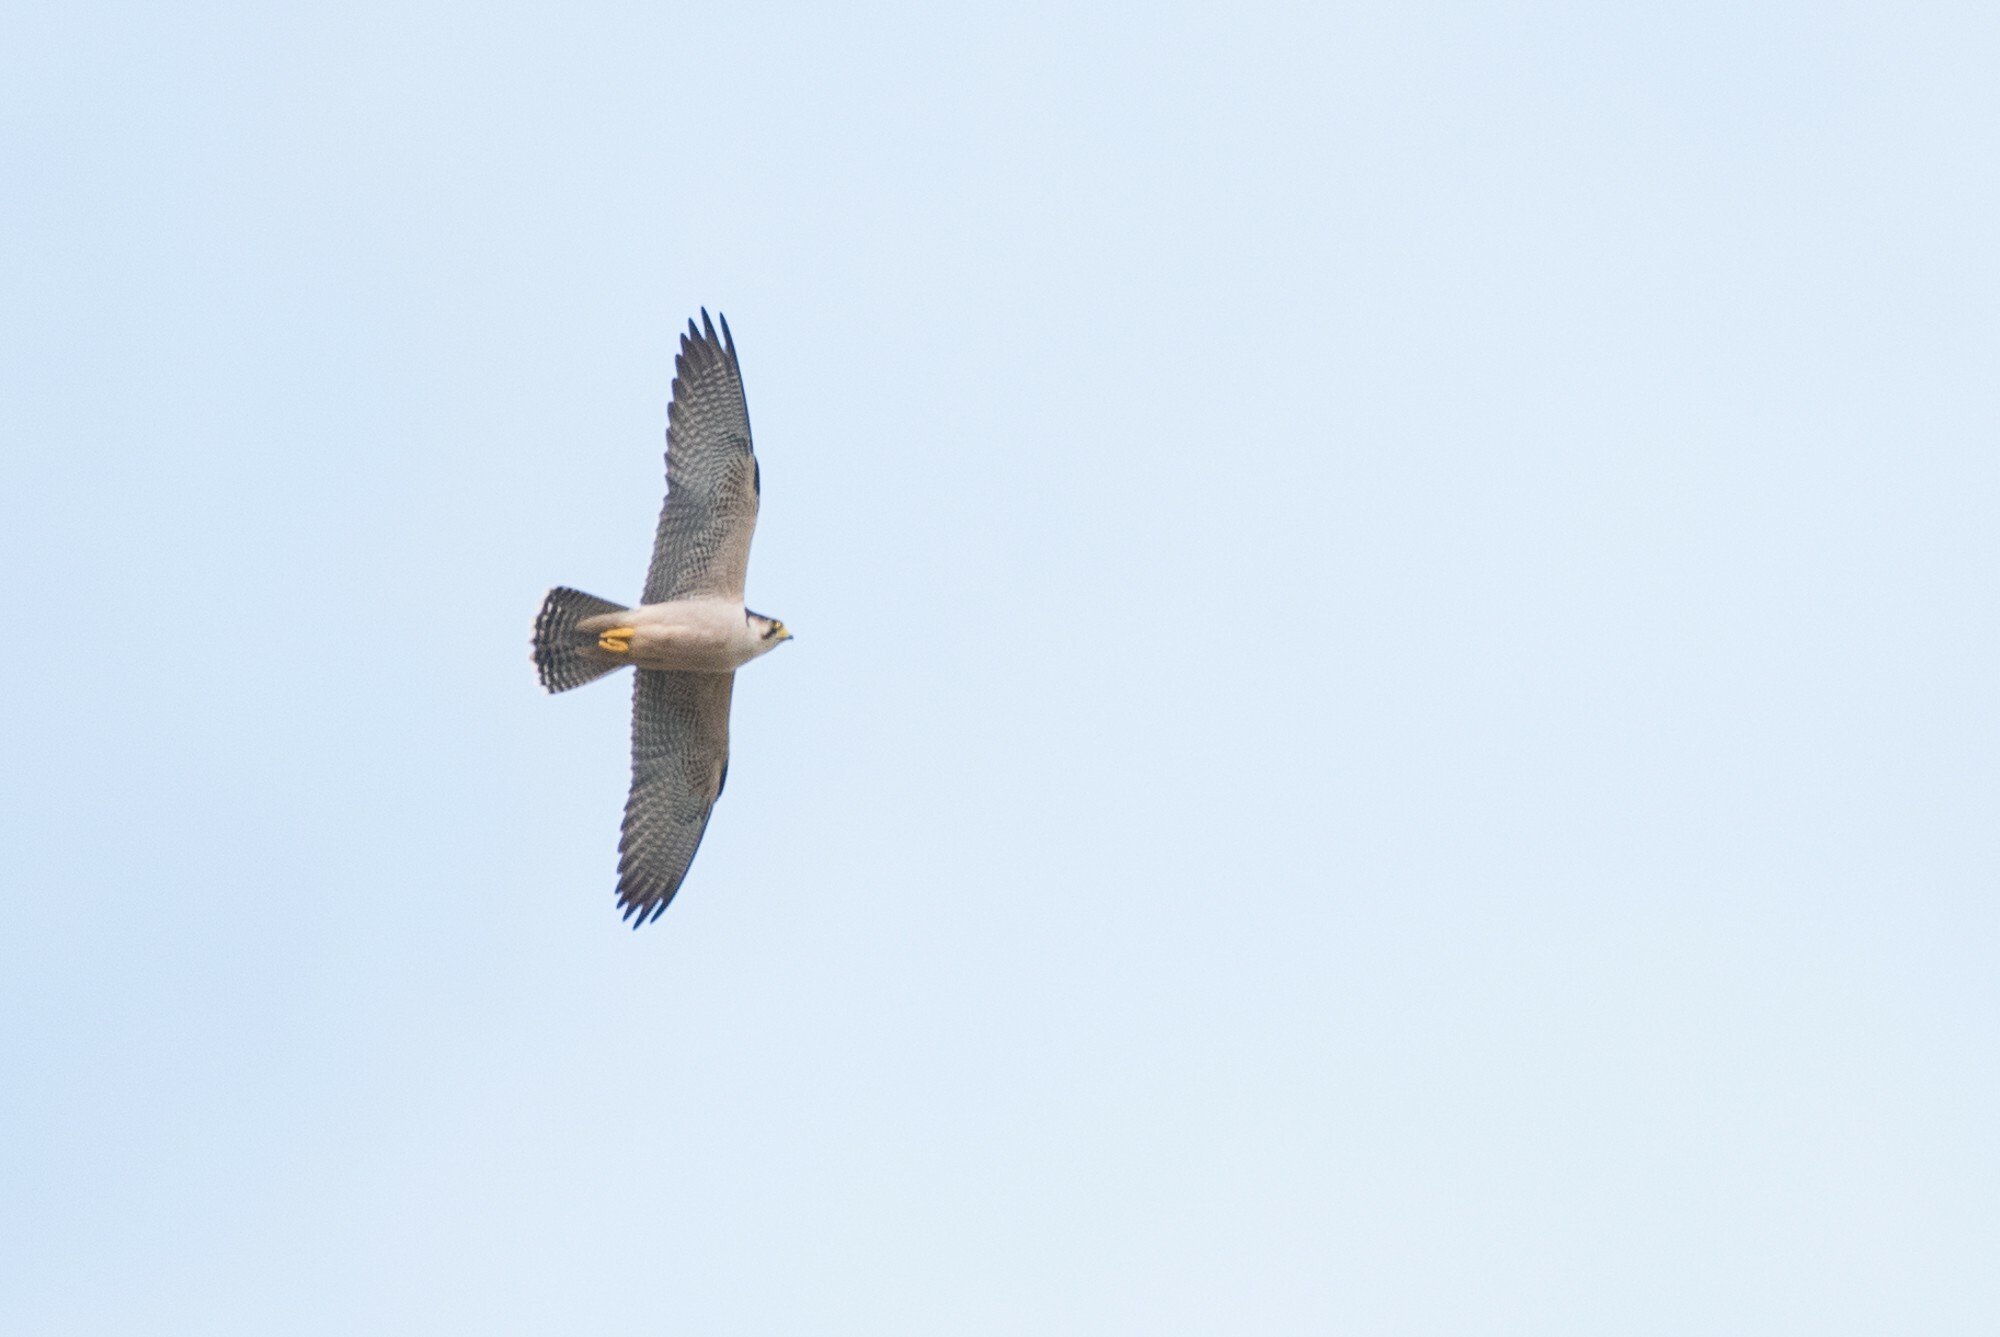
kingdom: Animalia
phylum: Chordata
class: Aves
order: Falconiformes
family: Falconidae
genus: Falco
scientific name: Falco biarmicus
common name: Lanner falcon
